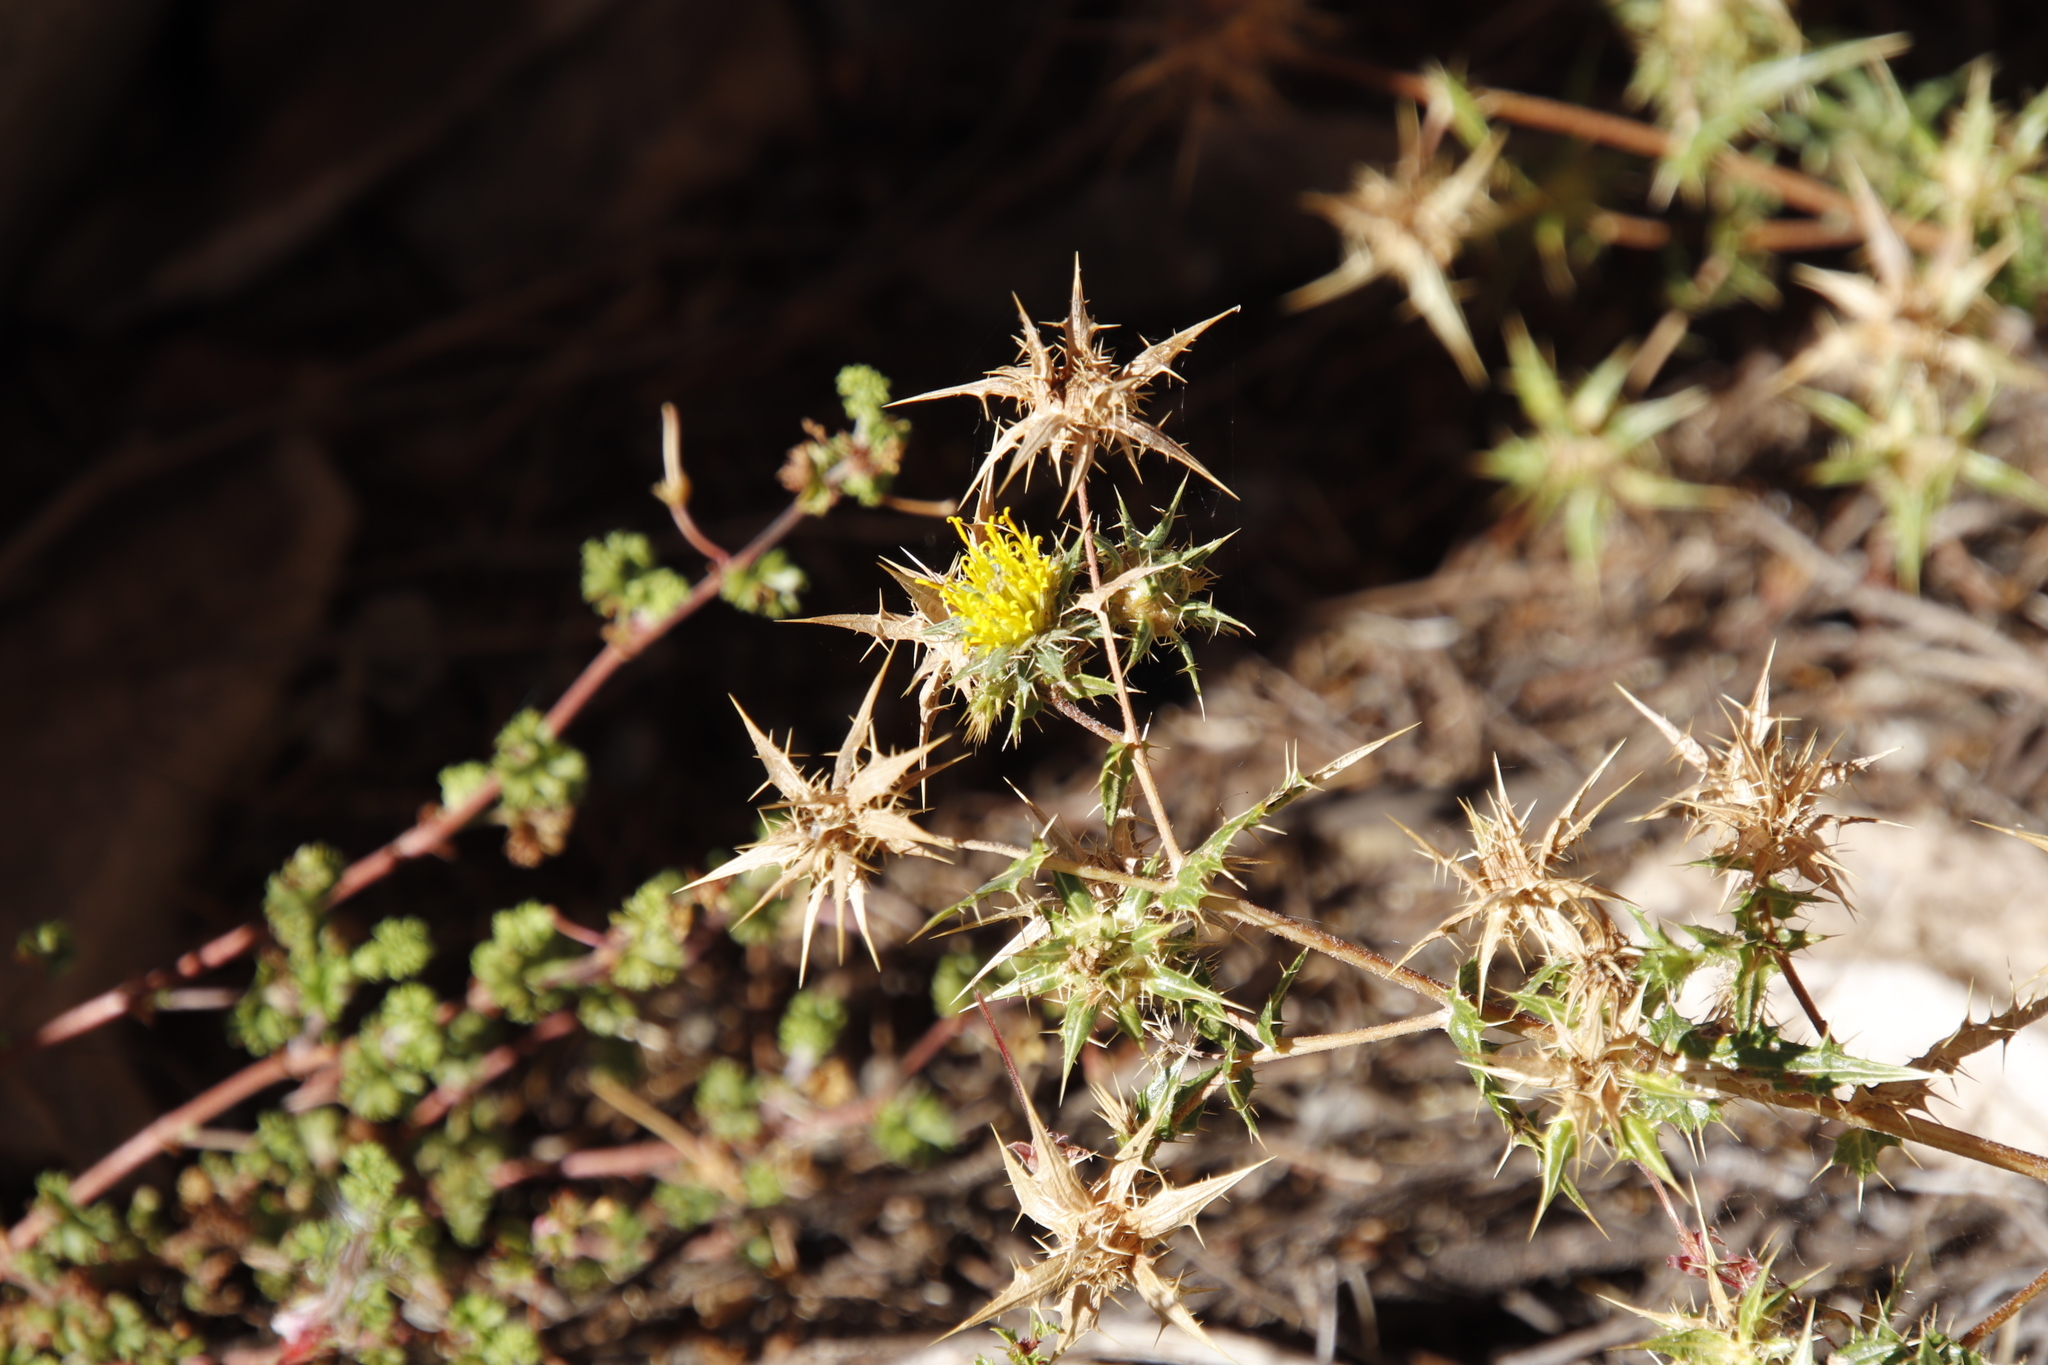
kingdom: Plantae
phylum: Tracheophyta
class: Magnoliopsida
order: Asterales
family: Asteraceae
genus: Berkheya
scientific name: Berkheya onobromoides
